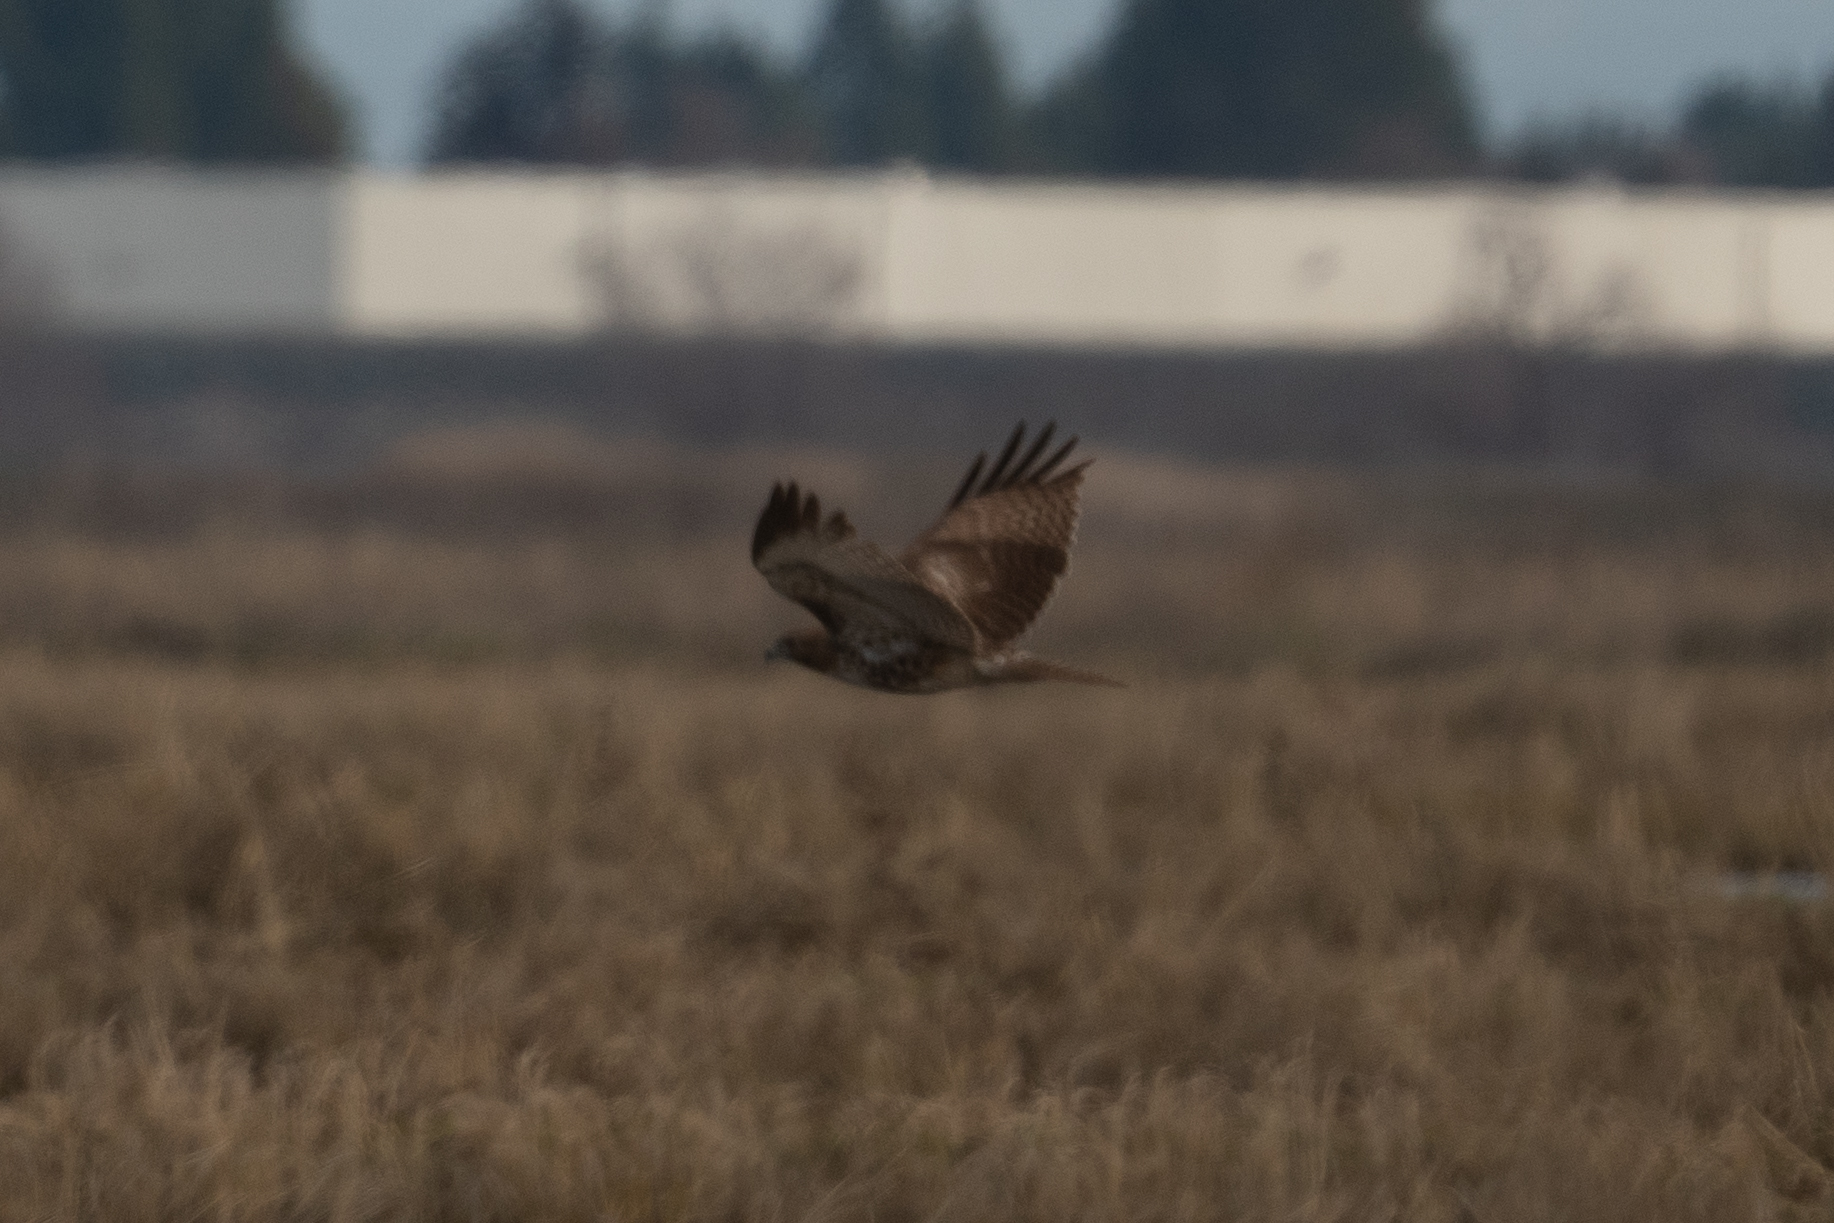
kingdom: Animalia
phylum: Chordata
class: Aves
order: Accipitriformes
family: Accipitridae
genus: Buteo
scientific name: Buteo jamaicensis
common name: Red-tailed hawk
